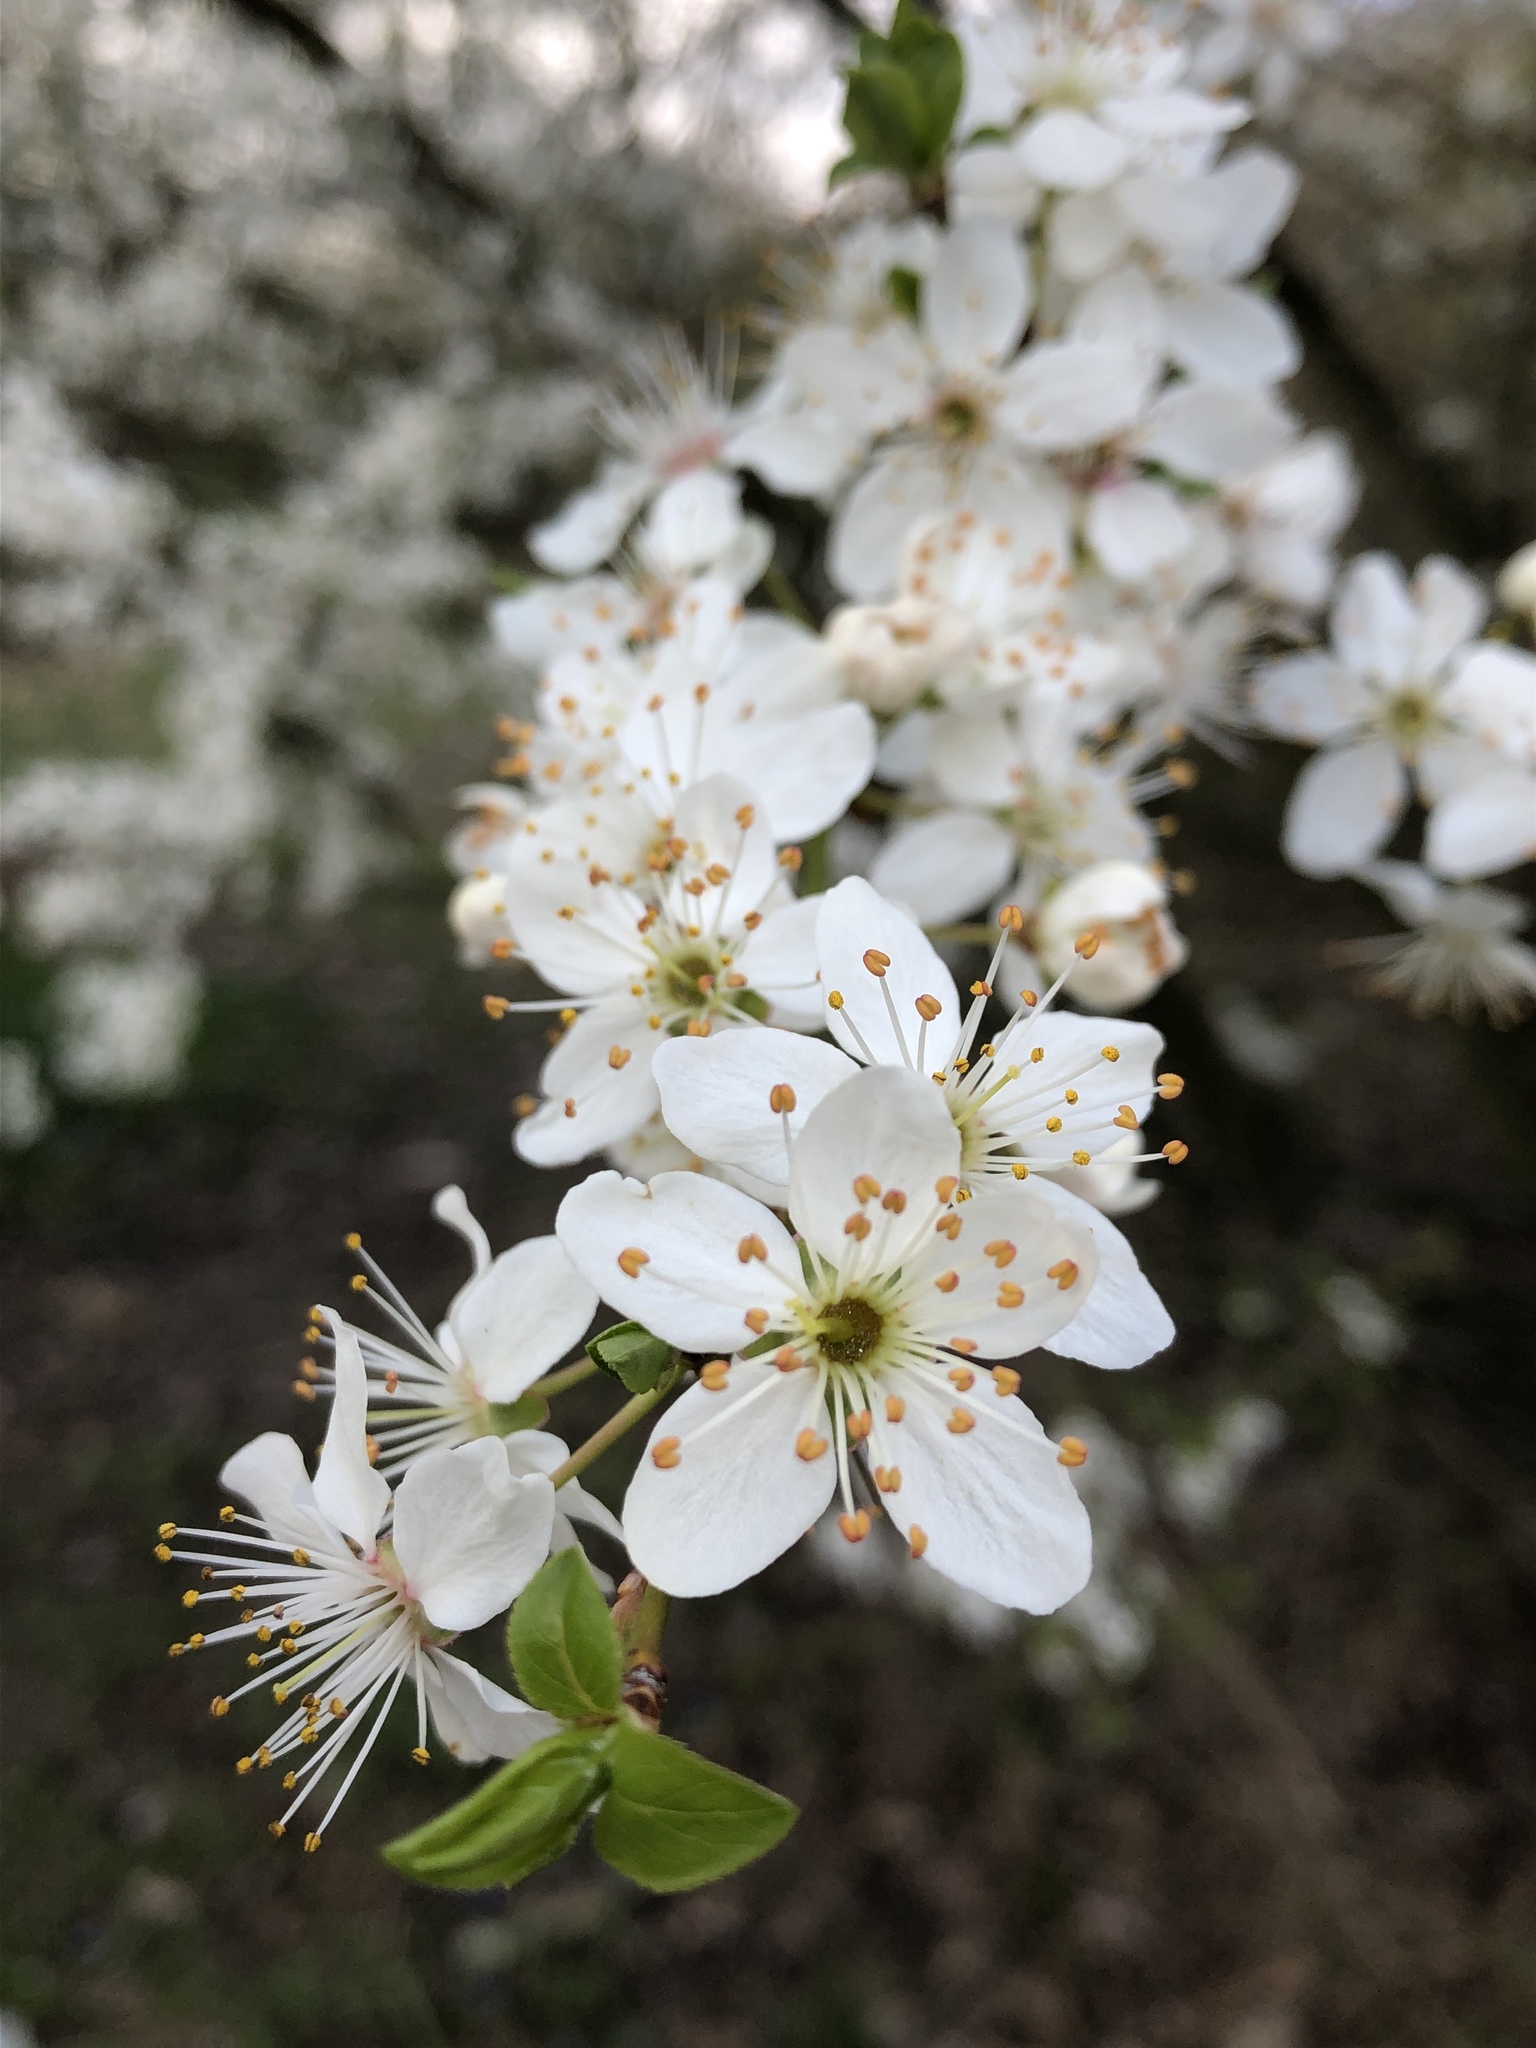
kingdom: Plantae
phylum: Tracheophyta
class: Magnoliopsida
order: Rosales
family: Rosaceae
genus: Prunus
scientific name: Prunus cerasifera
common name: Cherry plum
